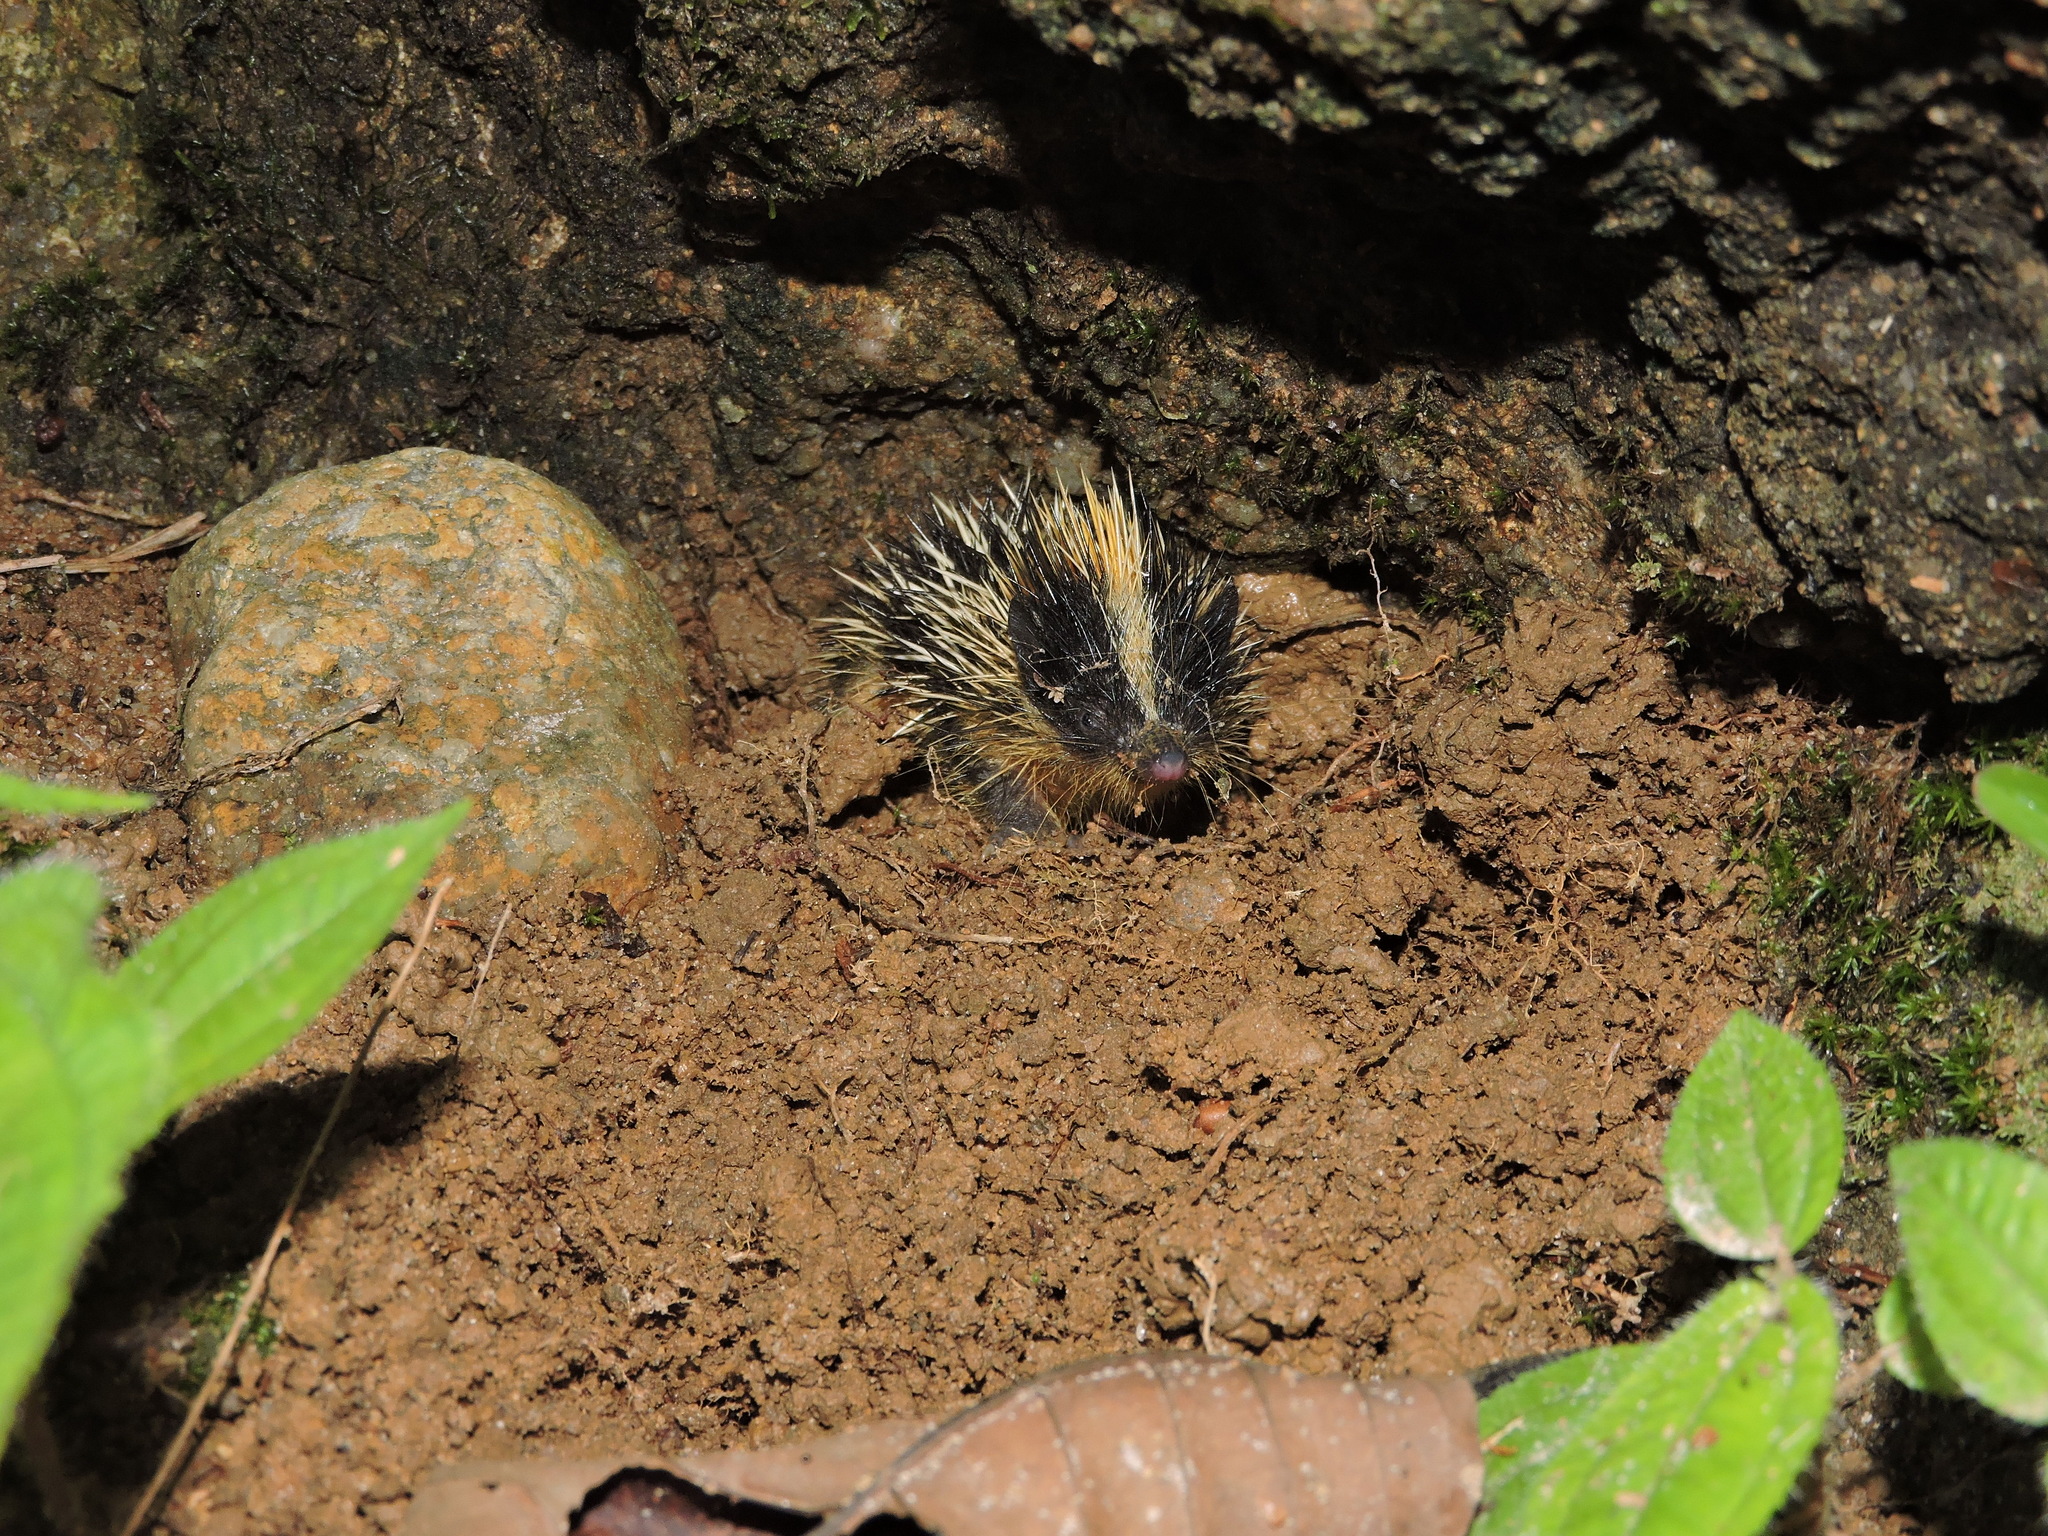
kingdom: Animalia
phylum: Chordata
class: Mammalia
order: Afrosoricida
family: Tenrecidae
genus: Hemicentetes
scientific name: Hemicentetes semispinosus
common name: Lowland streaked tenrec
